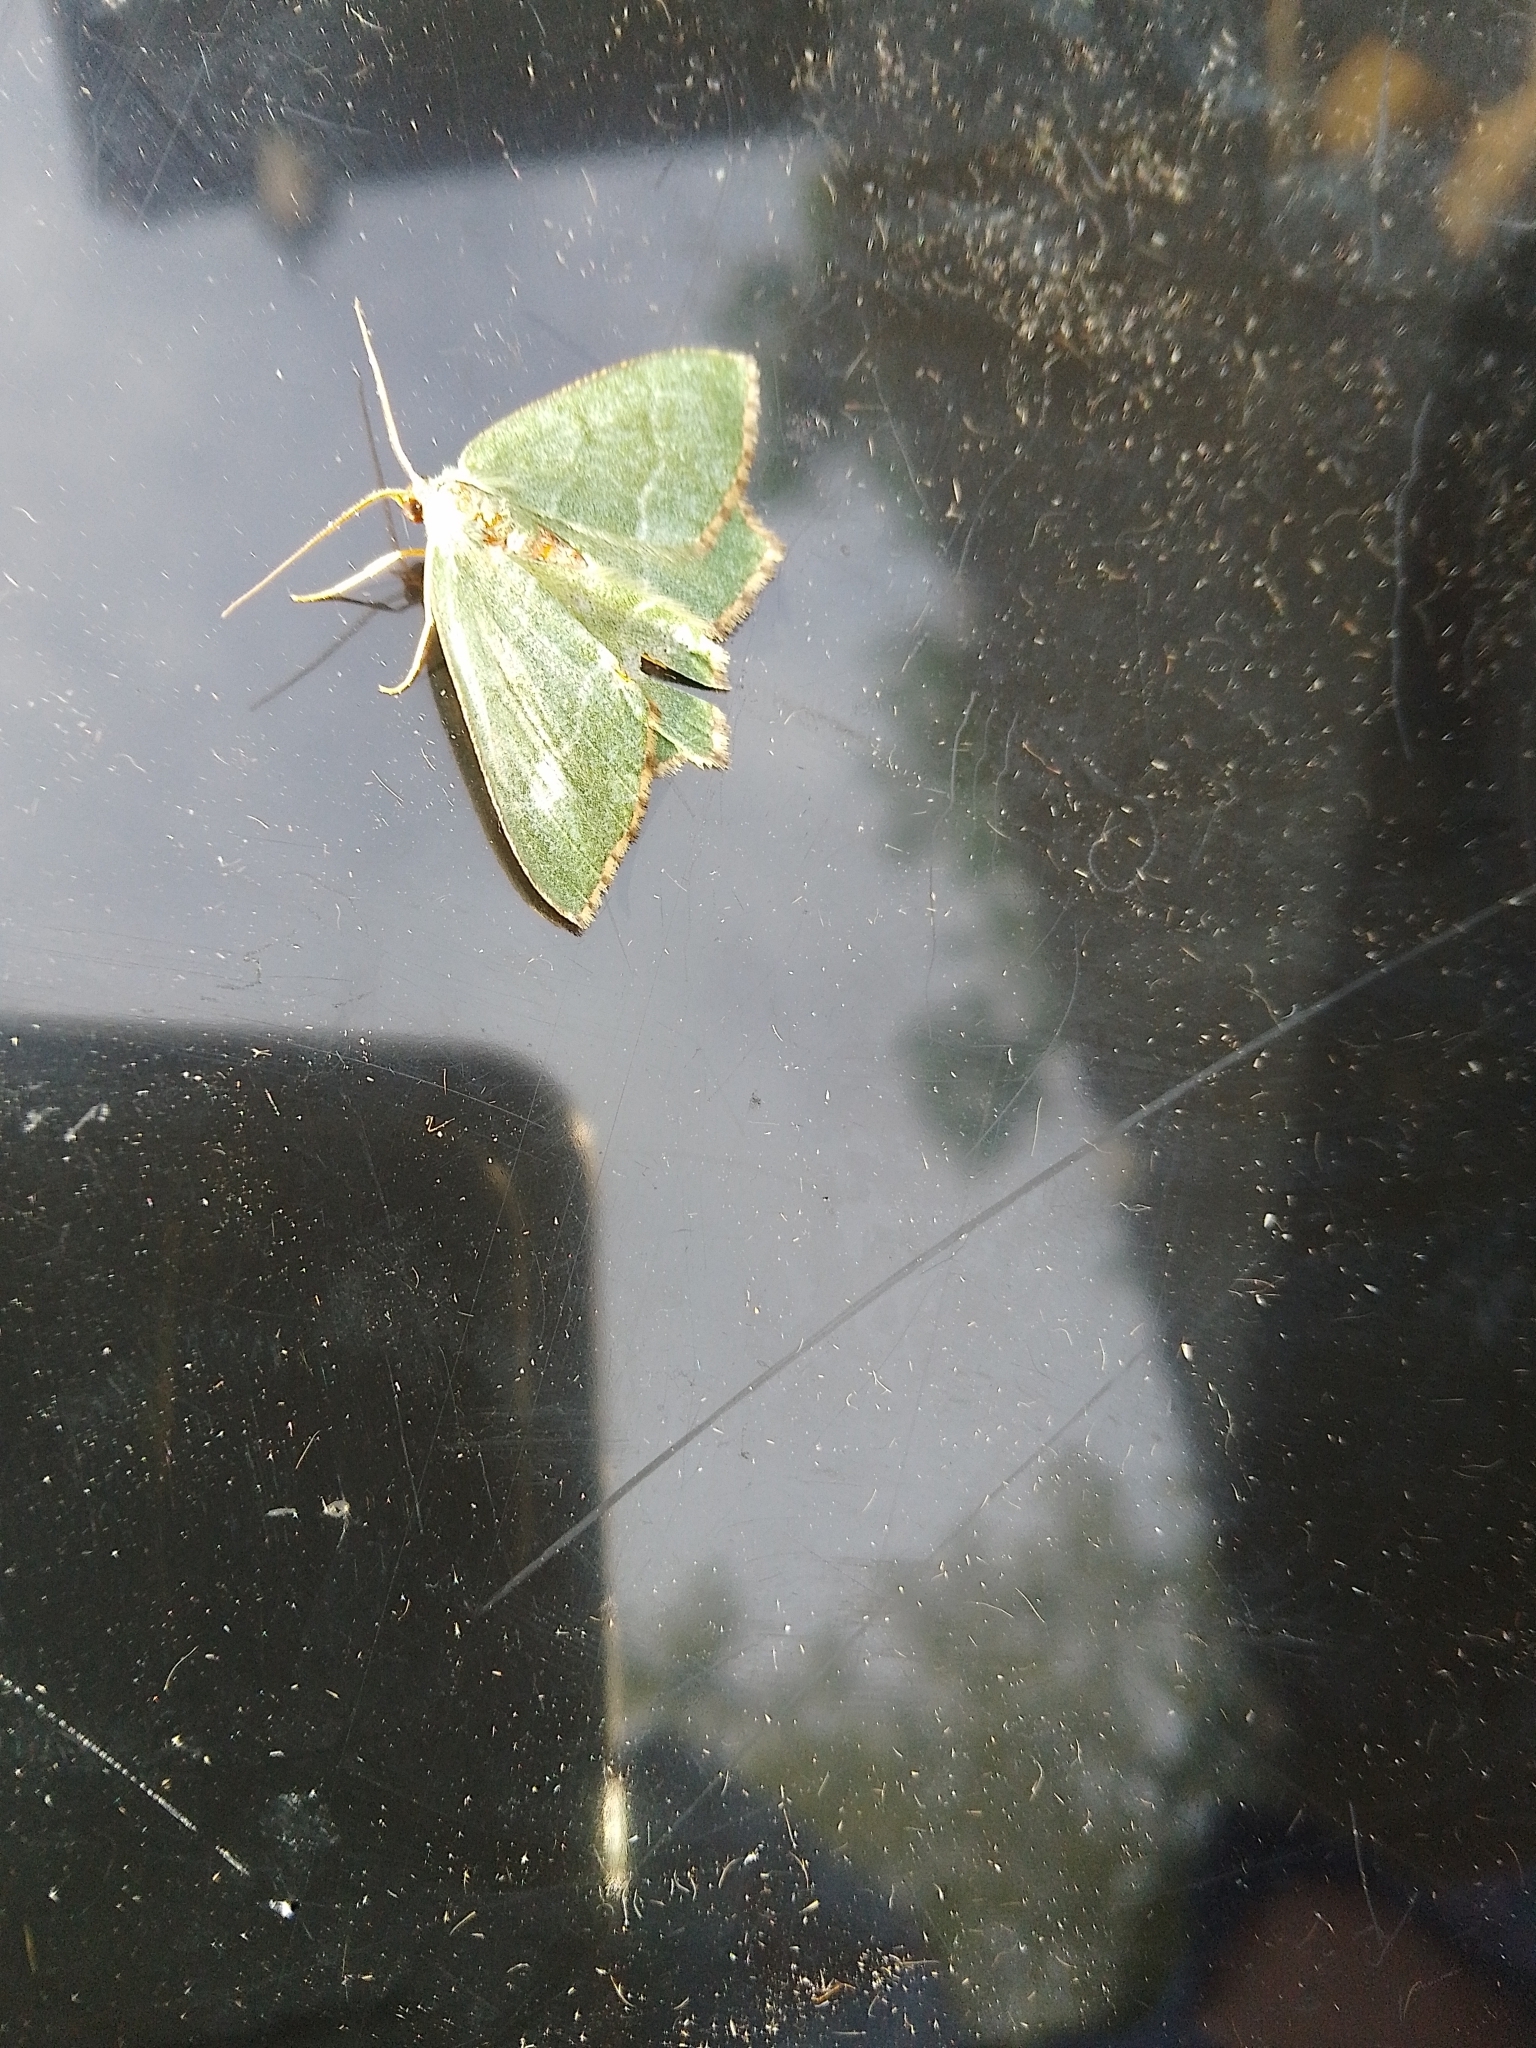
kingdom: Animalia
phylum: Arthropoda
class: Insecta
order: Lepidoptera
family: Geometridae
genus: Hemithea
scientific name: Hemithea aestivaria
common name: Common emerald
